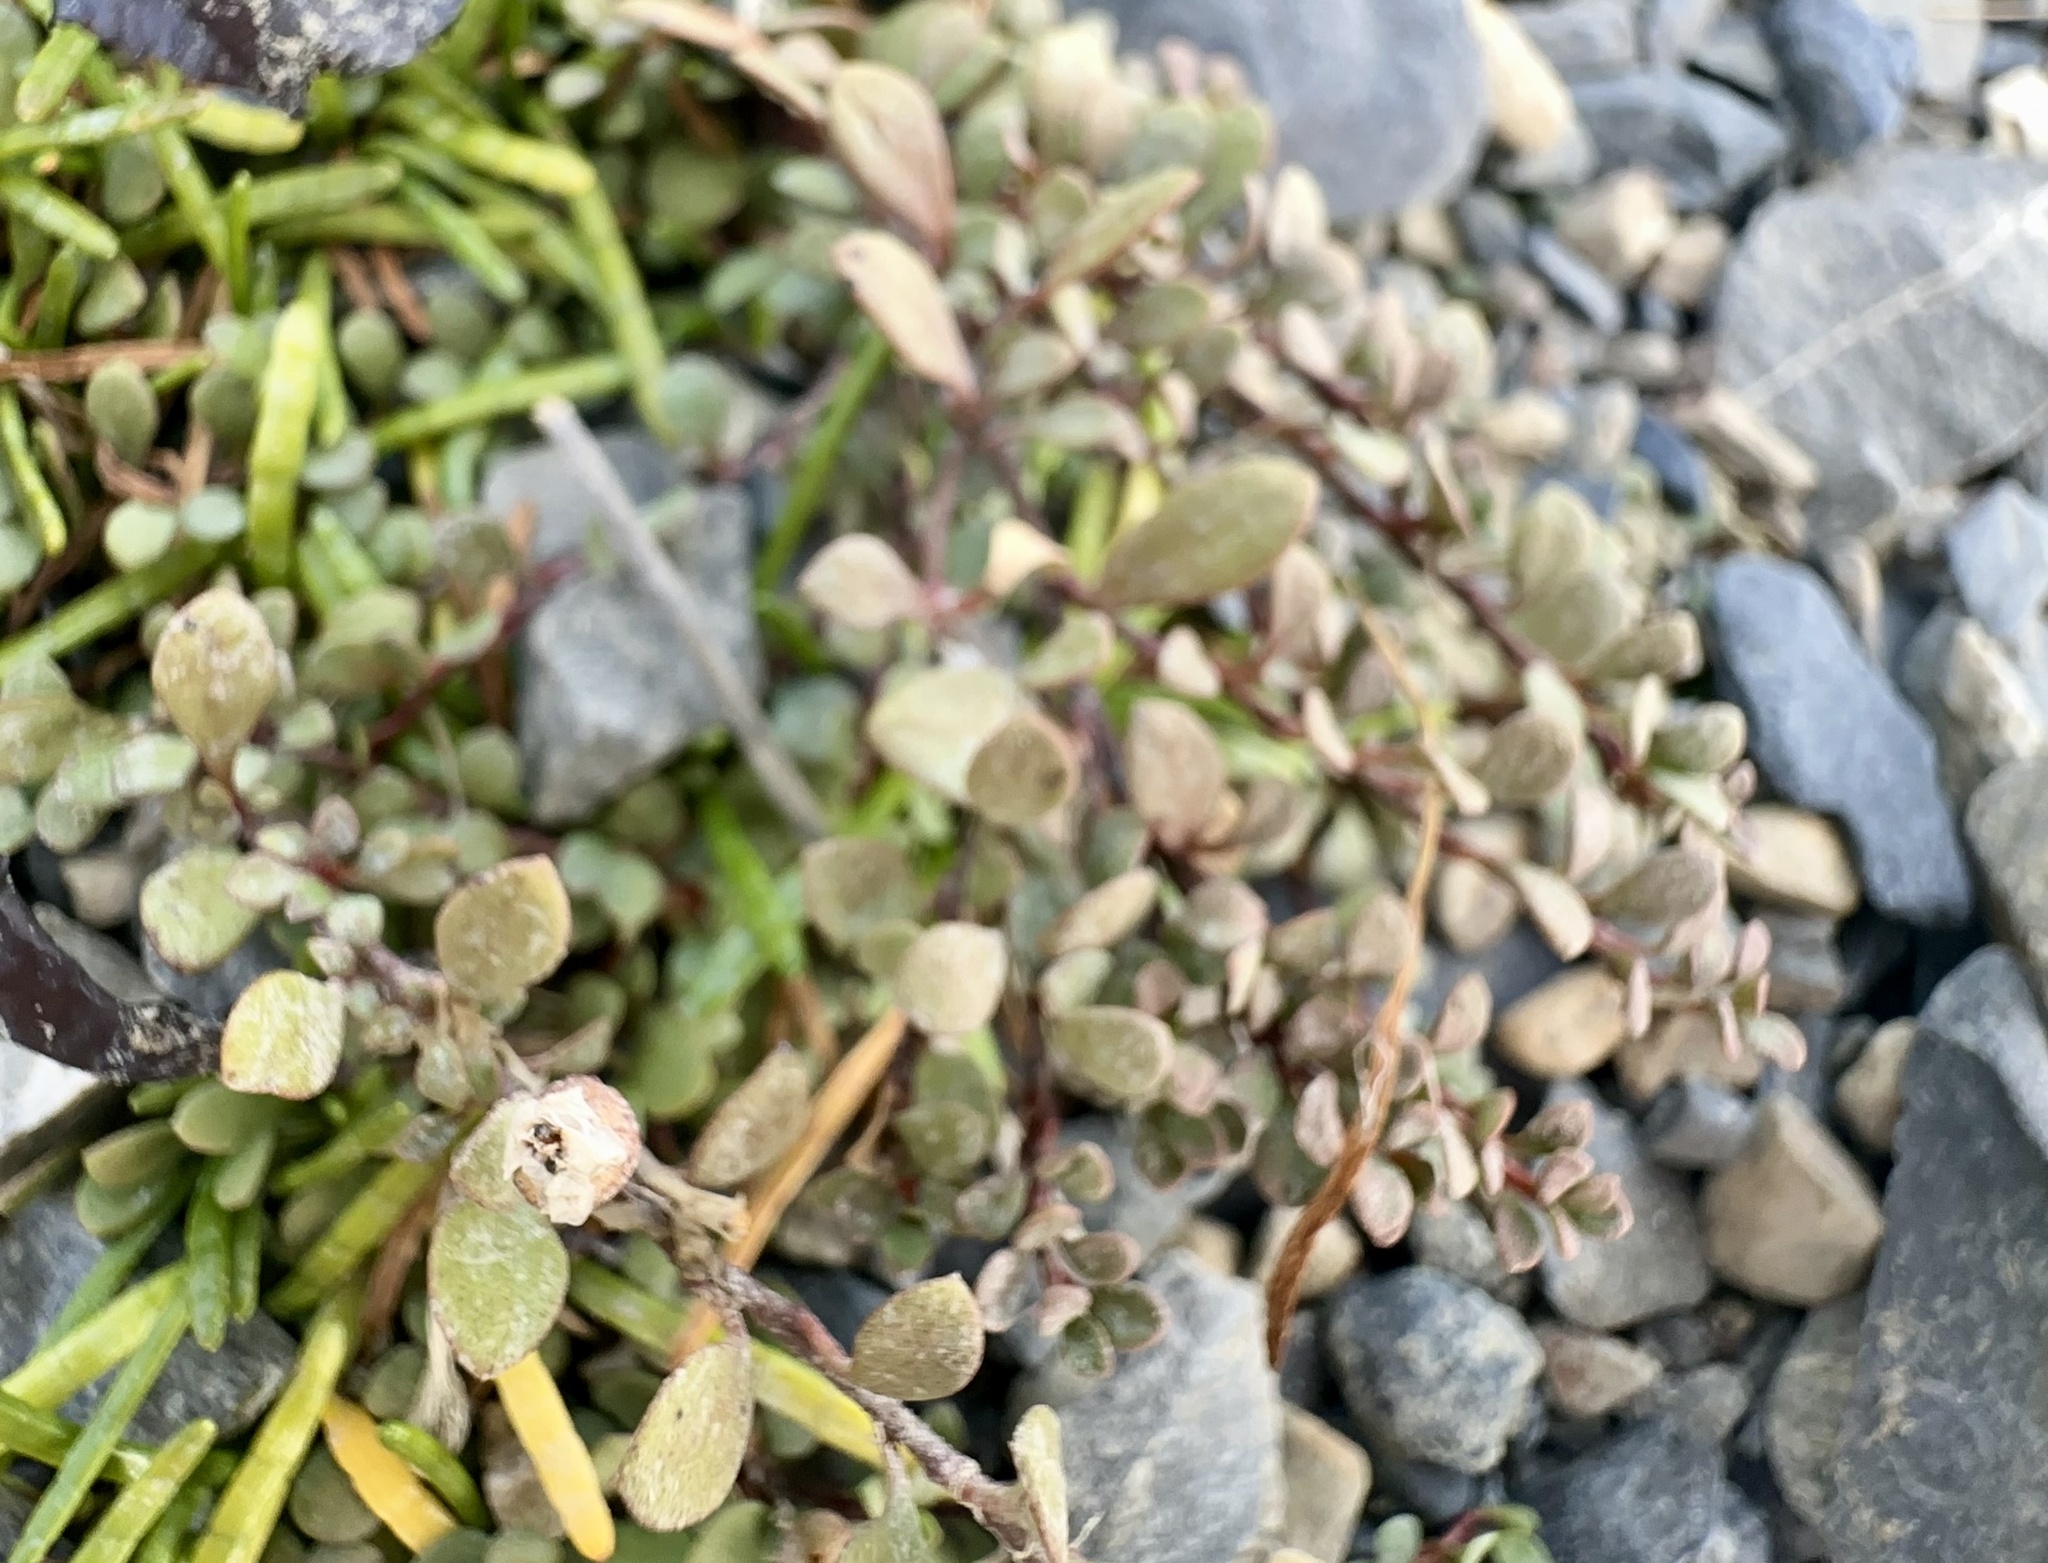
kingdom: Plantae
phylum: Tracheophyta
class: Magnoliopsida
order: Ericales
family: Primulaceae
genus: Samolus
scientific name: Samolus repens
